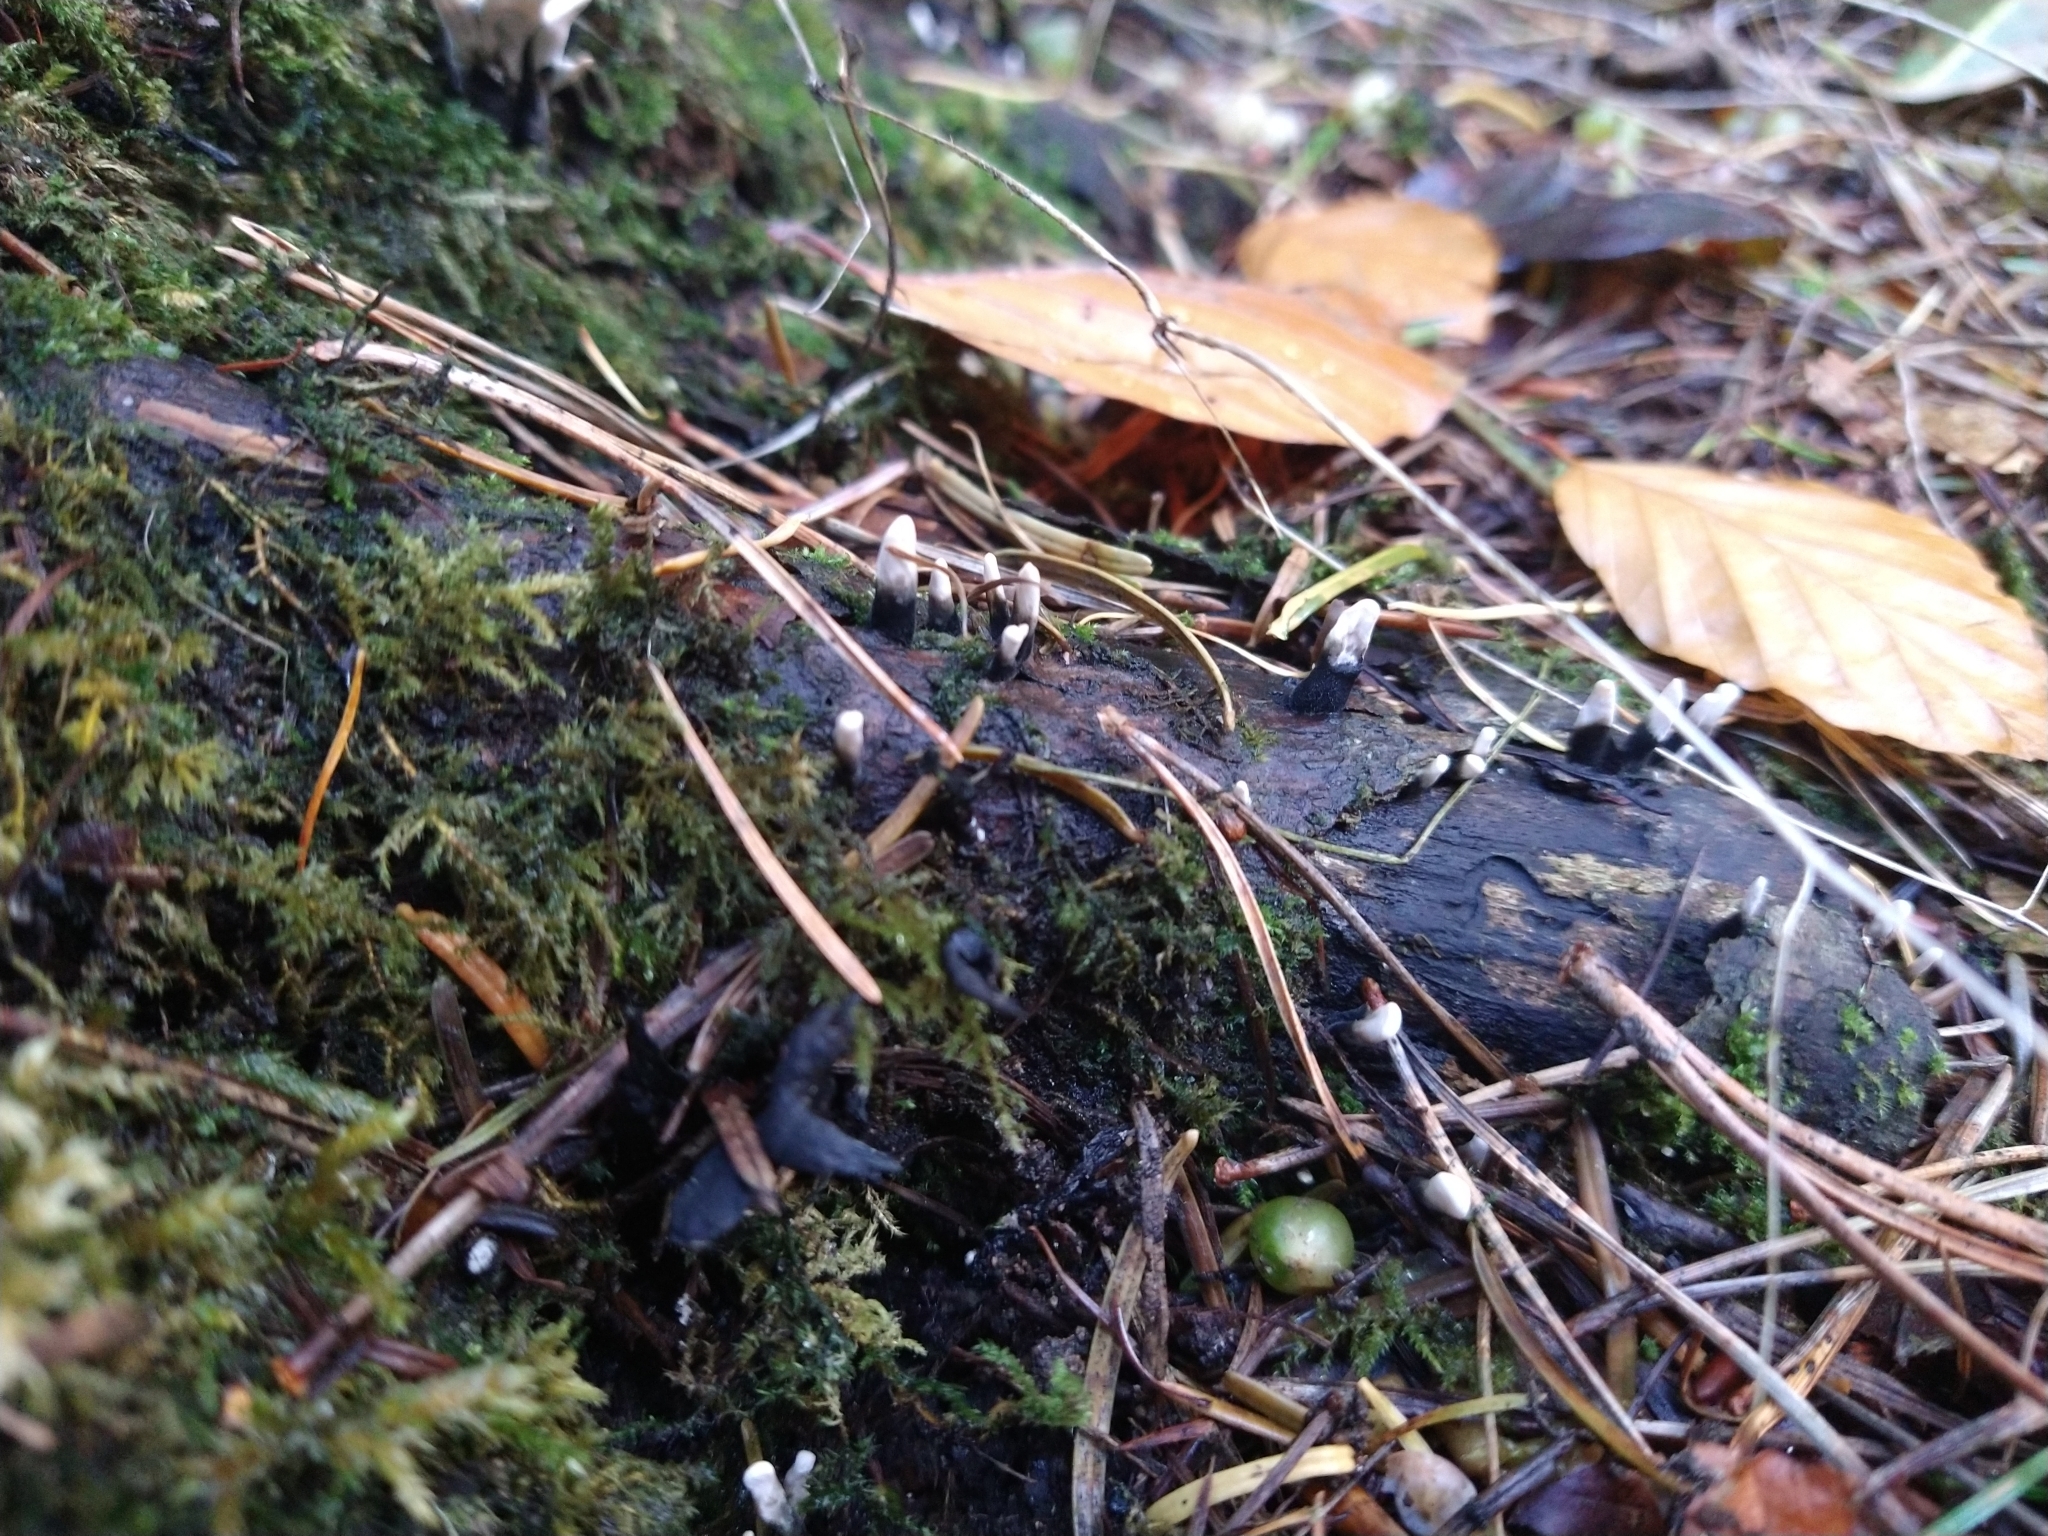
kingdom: Fungi
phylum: Ascomycota
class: Sordariomycetes
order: Xylariales
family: Xylariaceae
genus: Xylaria
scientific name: Xylaria hypoxylon
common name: Candle-snuff fungus
